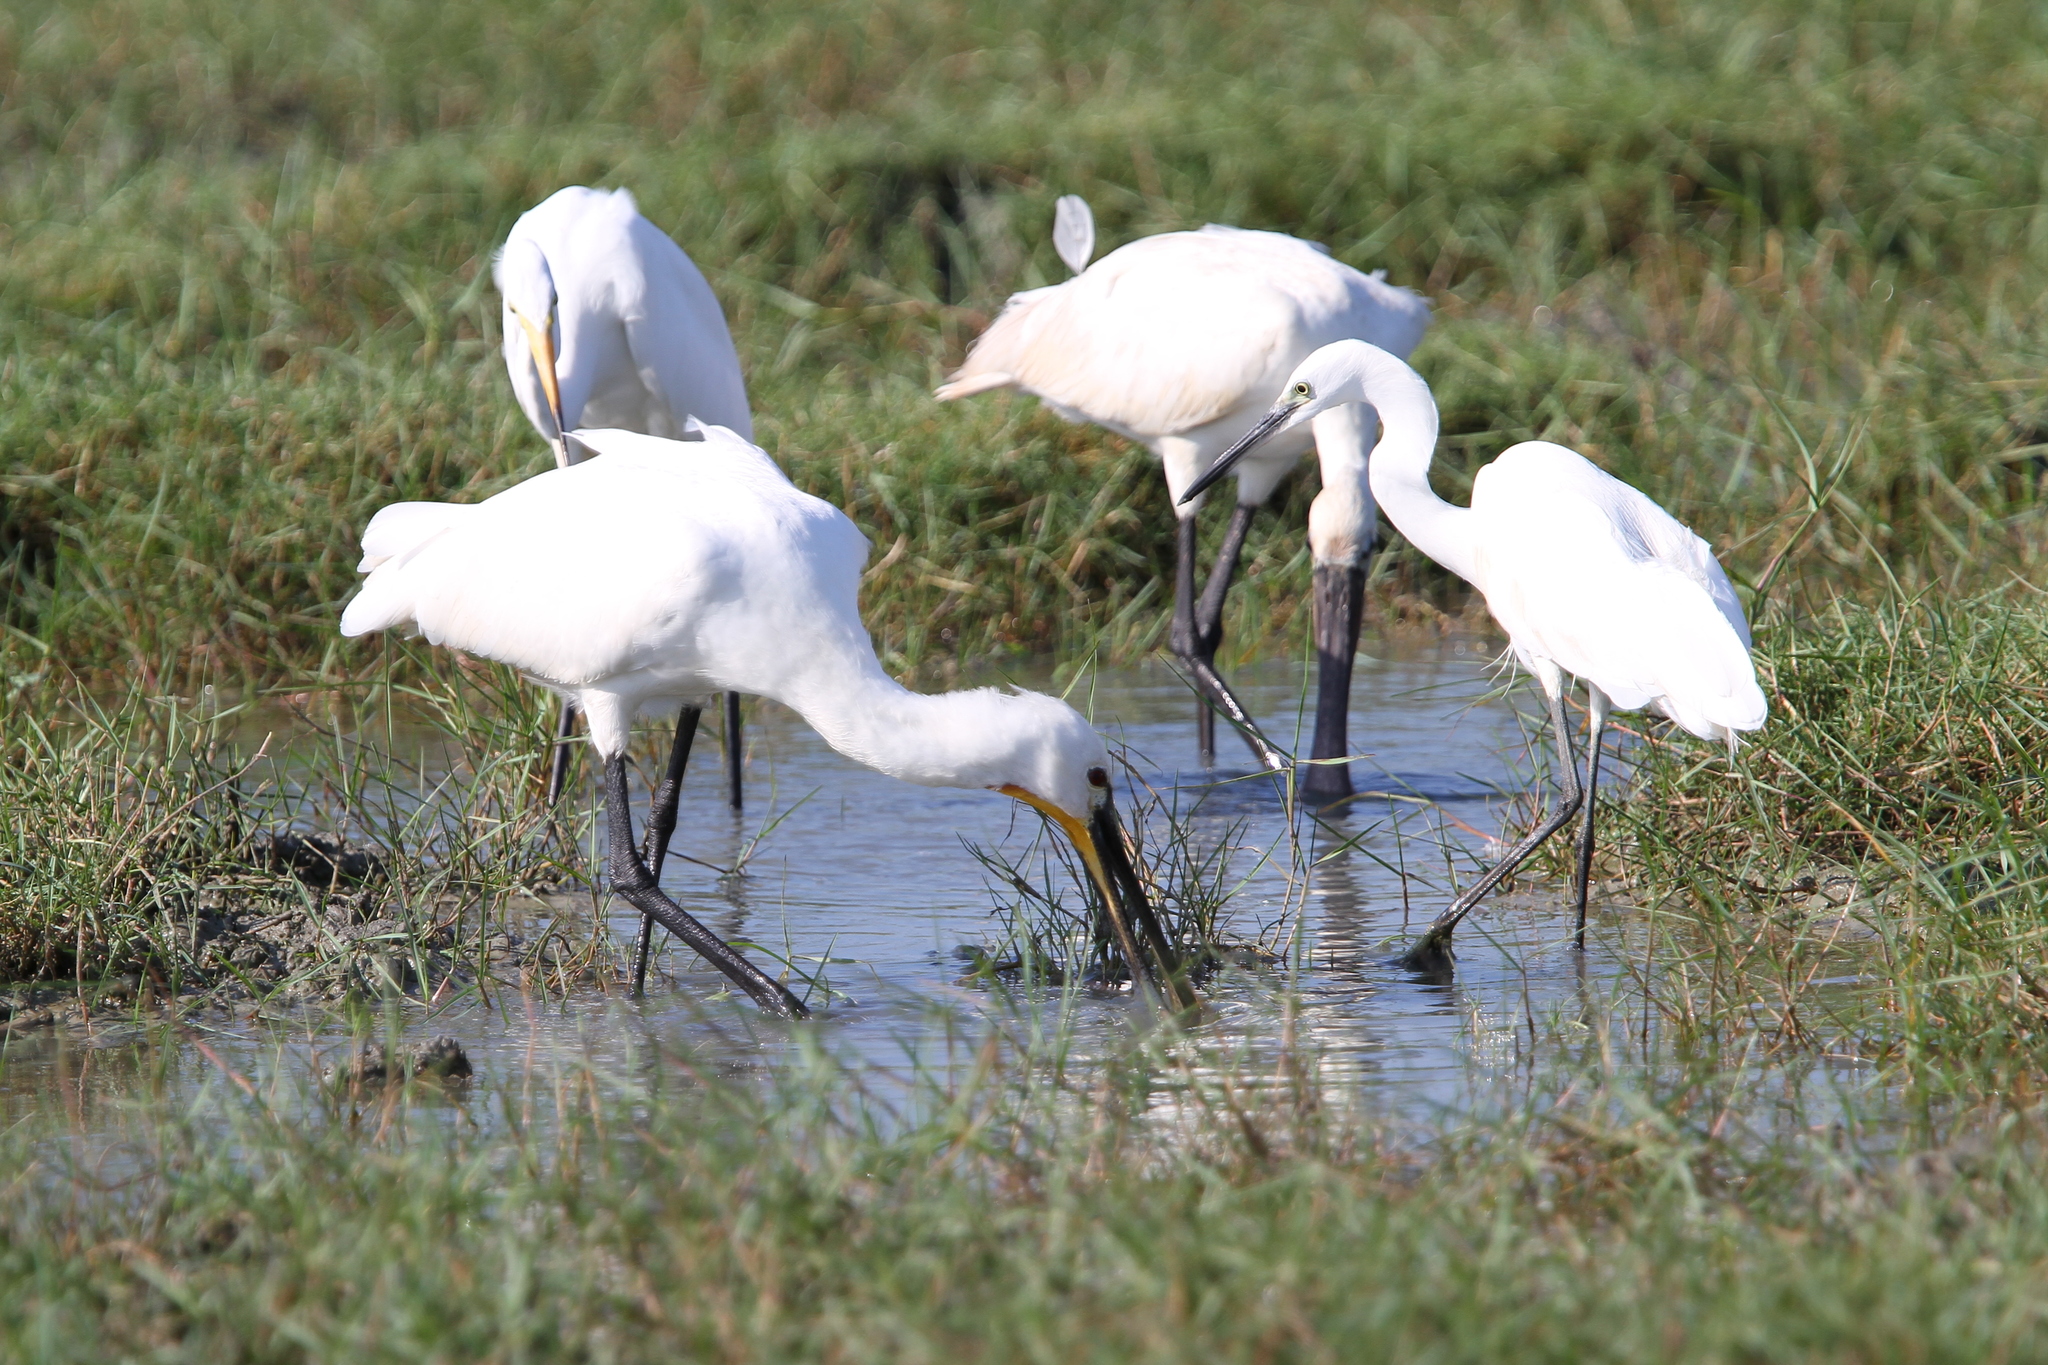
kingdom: Animalia
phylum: Chordata
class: Aves
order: Pelecaniformes
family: Threskiornithidae
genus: Platalea
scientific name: Platalea leucorodia
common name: Eurasian spoonbill
